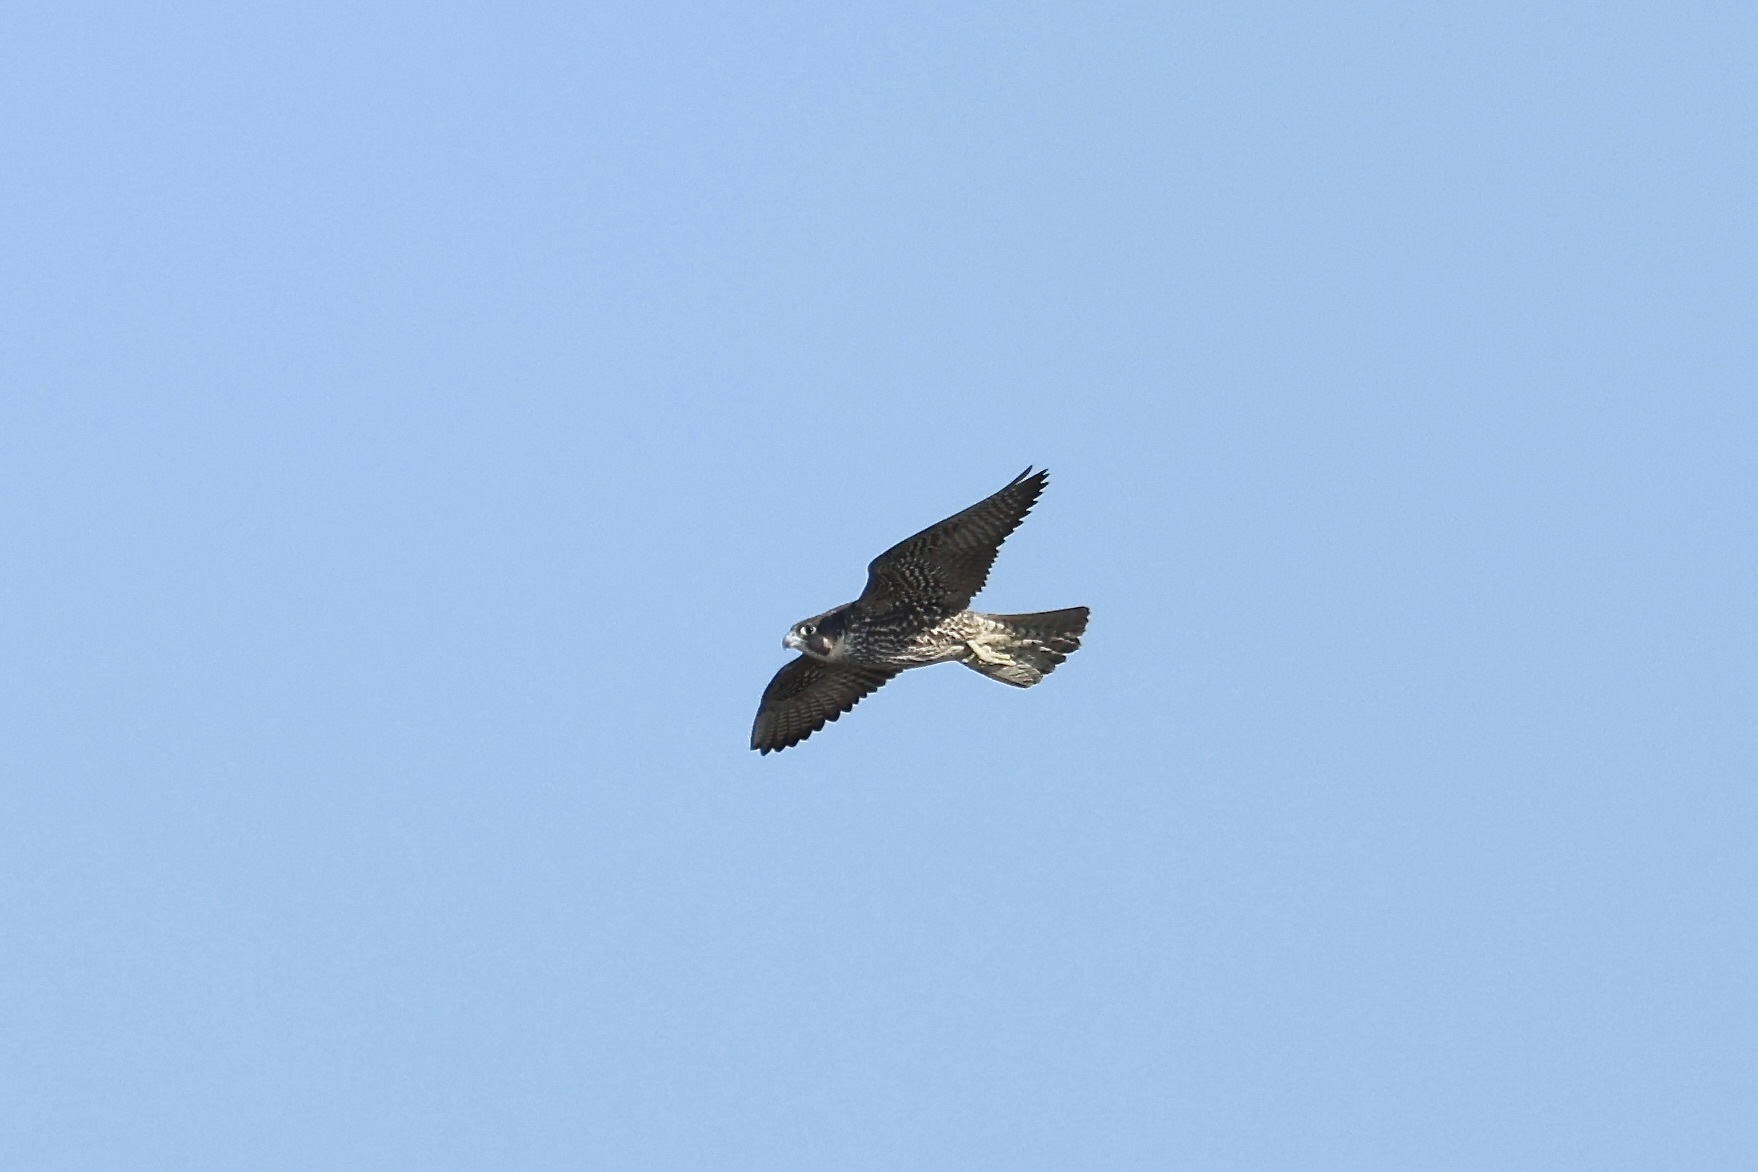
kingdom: Animalia
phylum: Chordata
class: Aves
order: Falconiformes
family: Falconidae
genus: Falco
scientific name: Falco peregrinus
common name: Peregrine falcon
